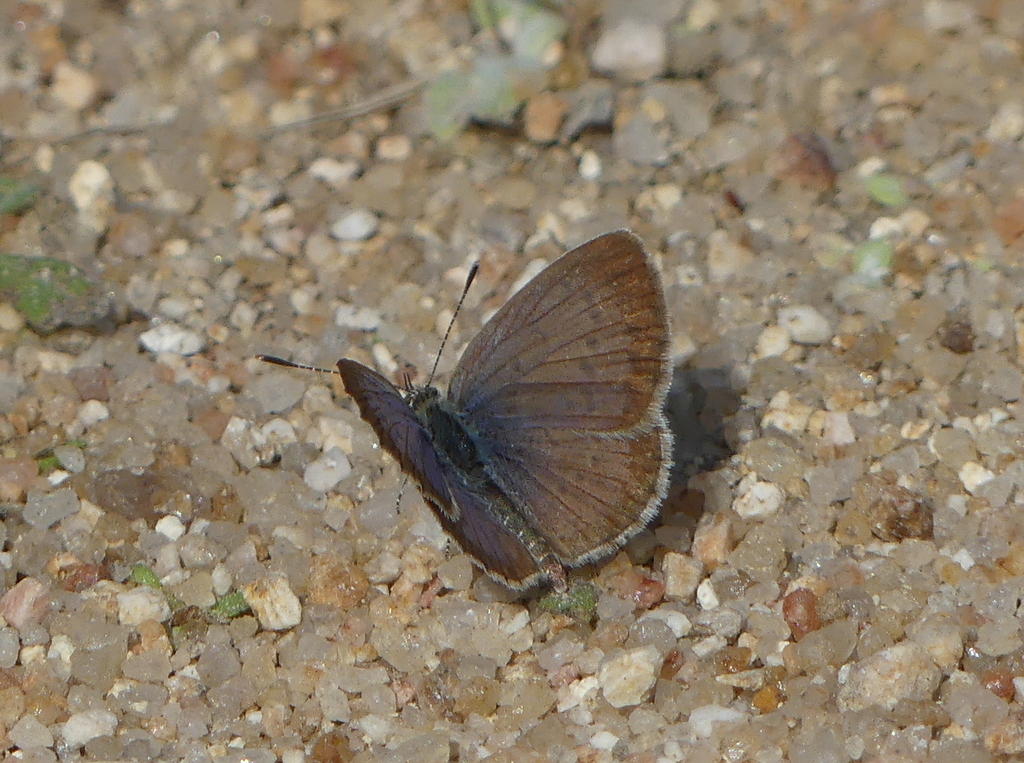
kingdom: Animalia
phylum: Arthropoda
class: Insecta
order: Lepidoptera
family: Lycaenidae
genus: Zizeeria
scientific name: Zizeeria knysna
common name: African grass blue
